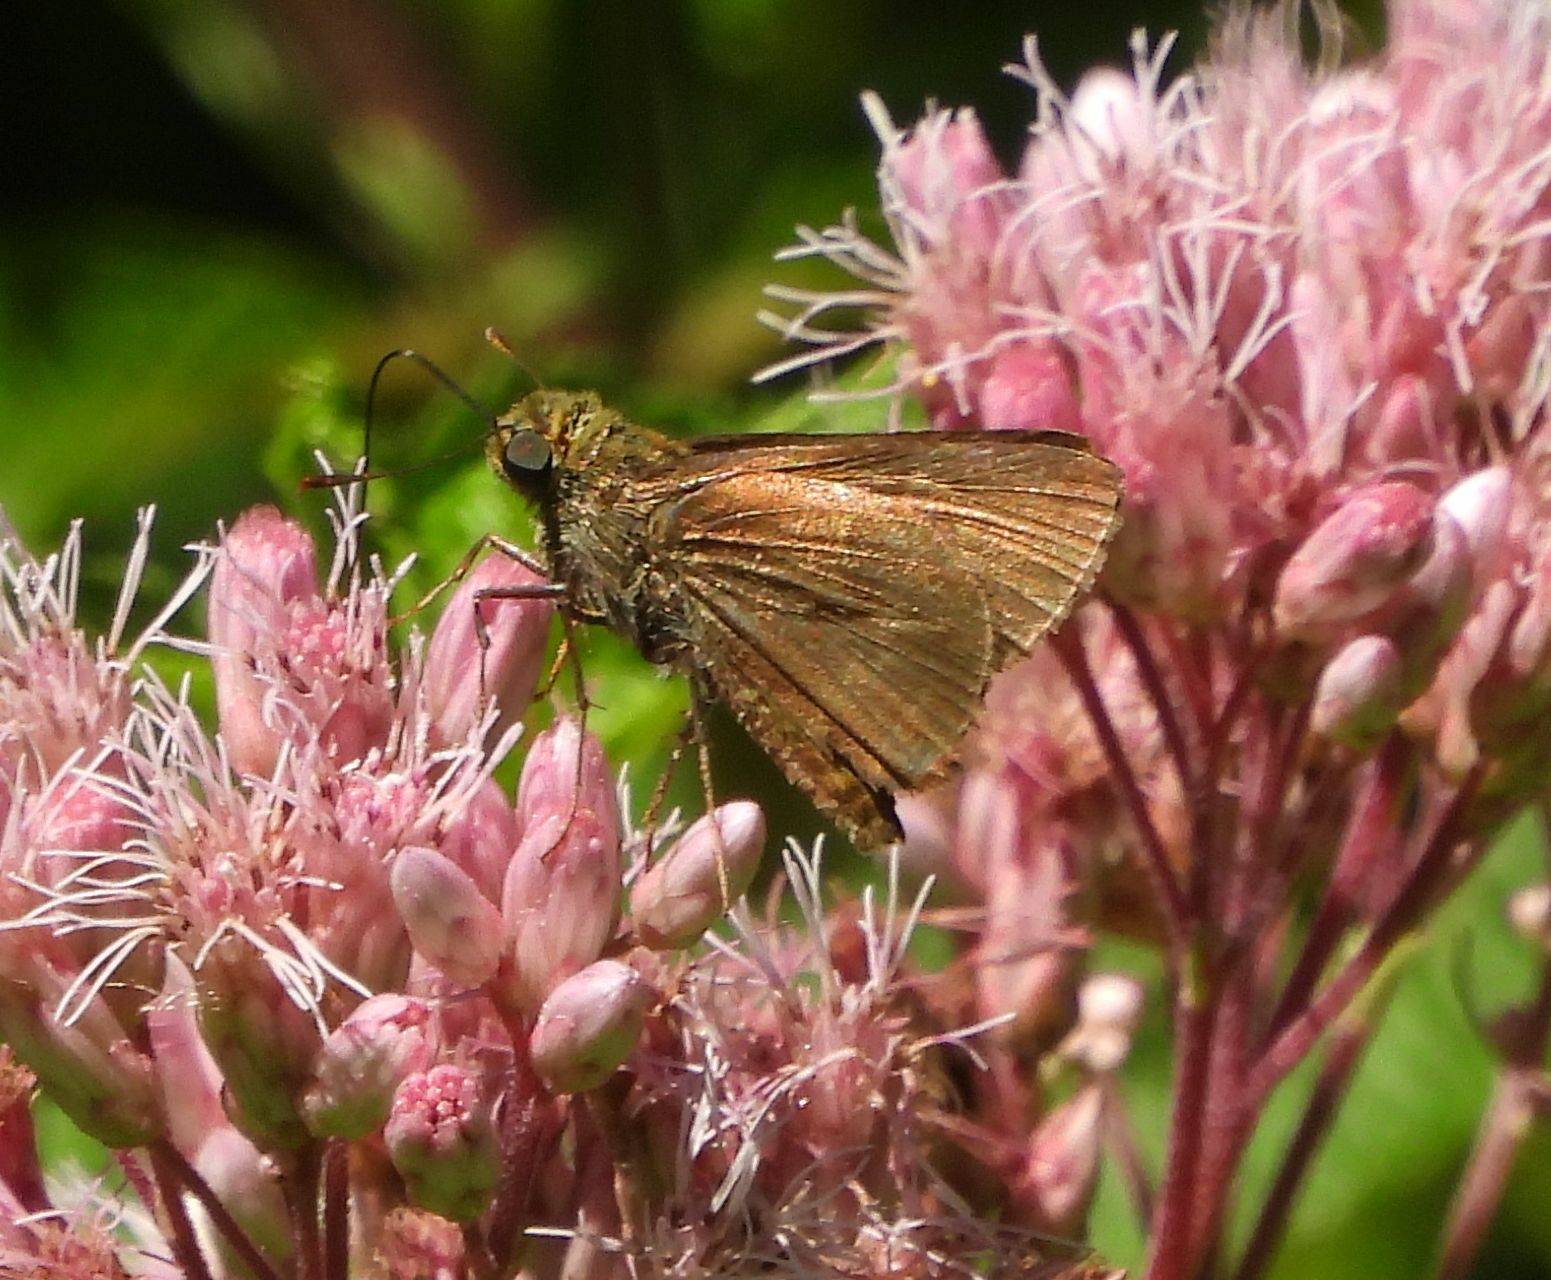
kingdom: Animalia
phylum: Arthropoda
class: Insecta
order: Lepidoptera
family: Hesperiidae
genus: Euphyes
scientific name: Euphyes vestris
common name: Dun skipper
